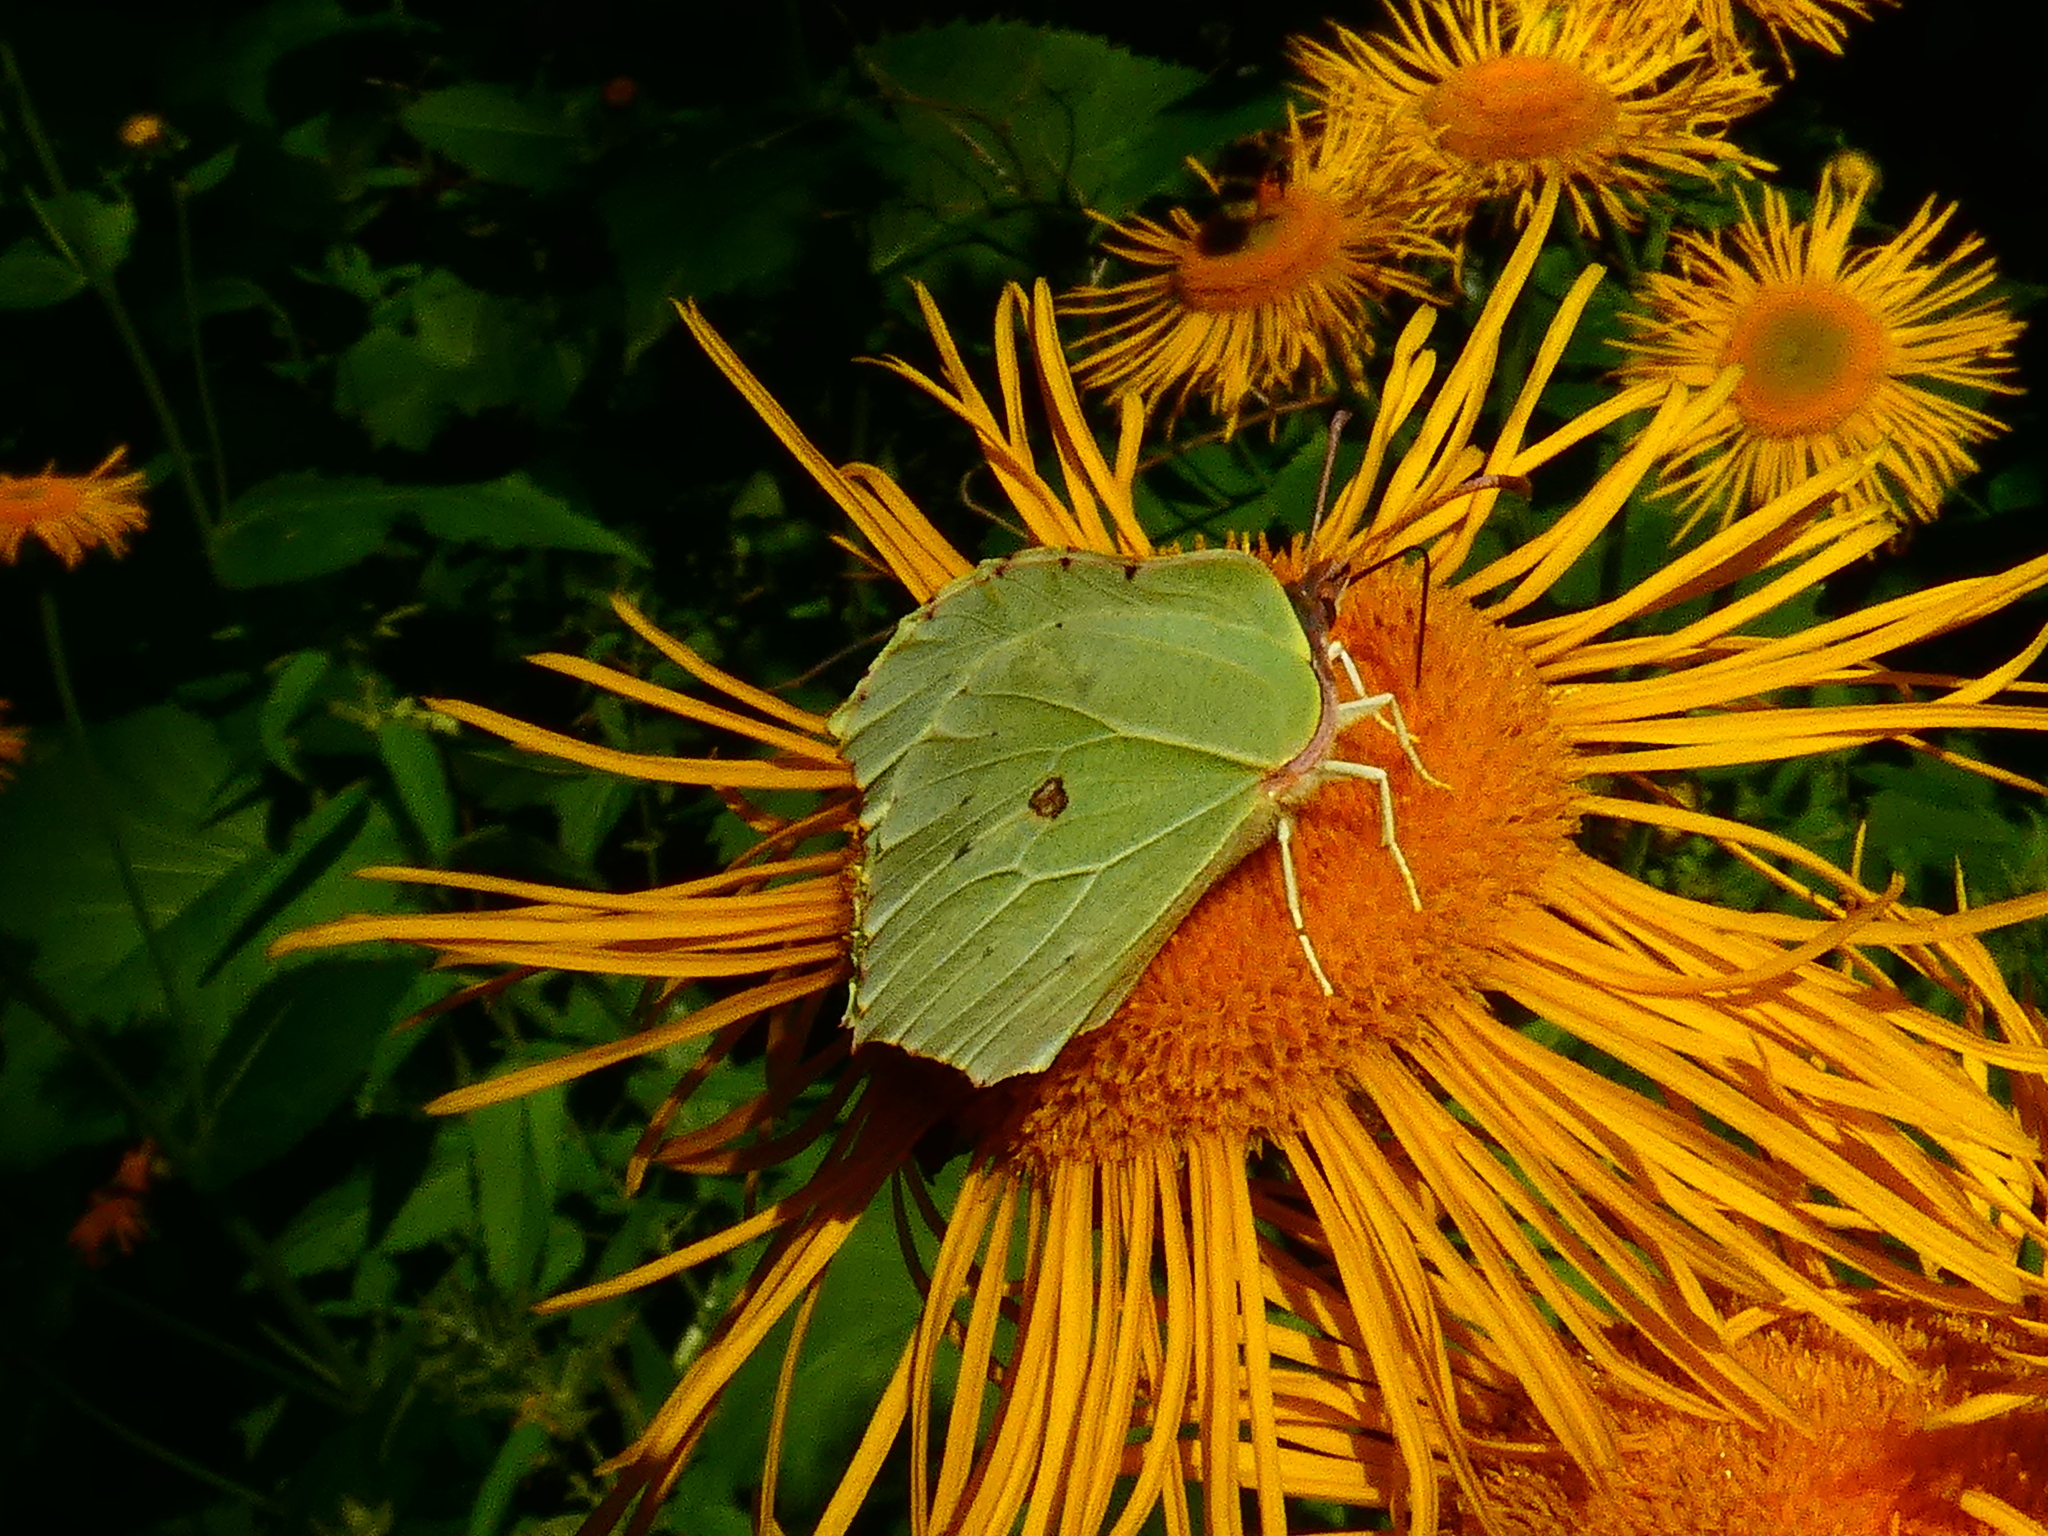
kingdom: Animalia
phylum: Arthropoda
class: Insecta
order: Lepidoptera
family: Pieridae
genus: Gonepteryx
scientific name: Gonepteryx rhamni
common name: Brimstone
